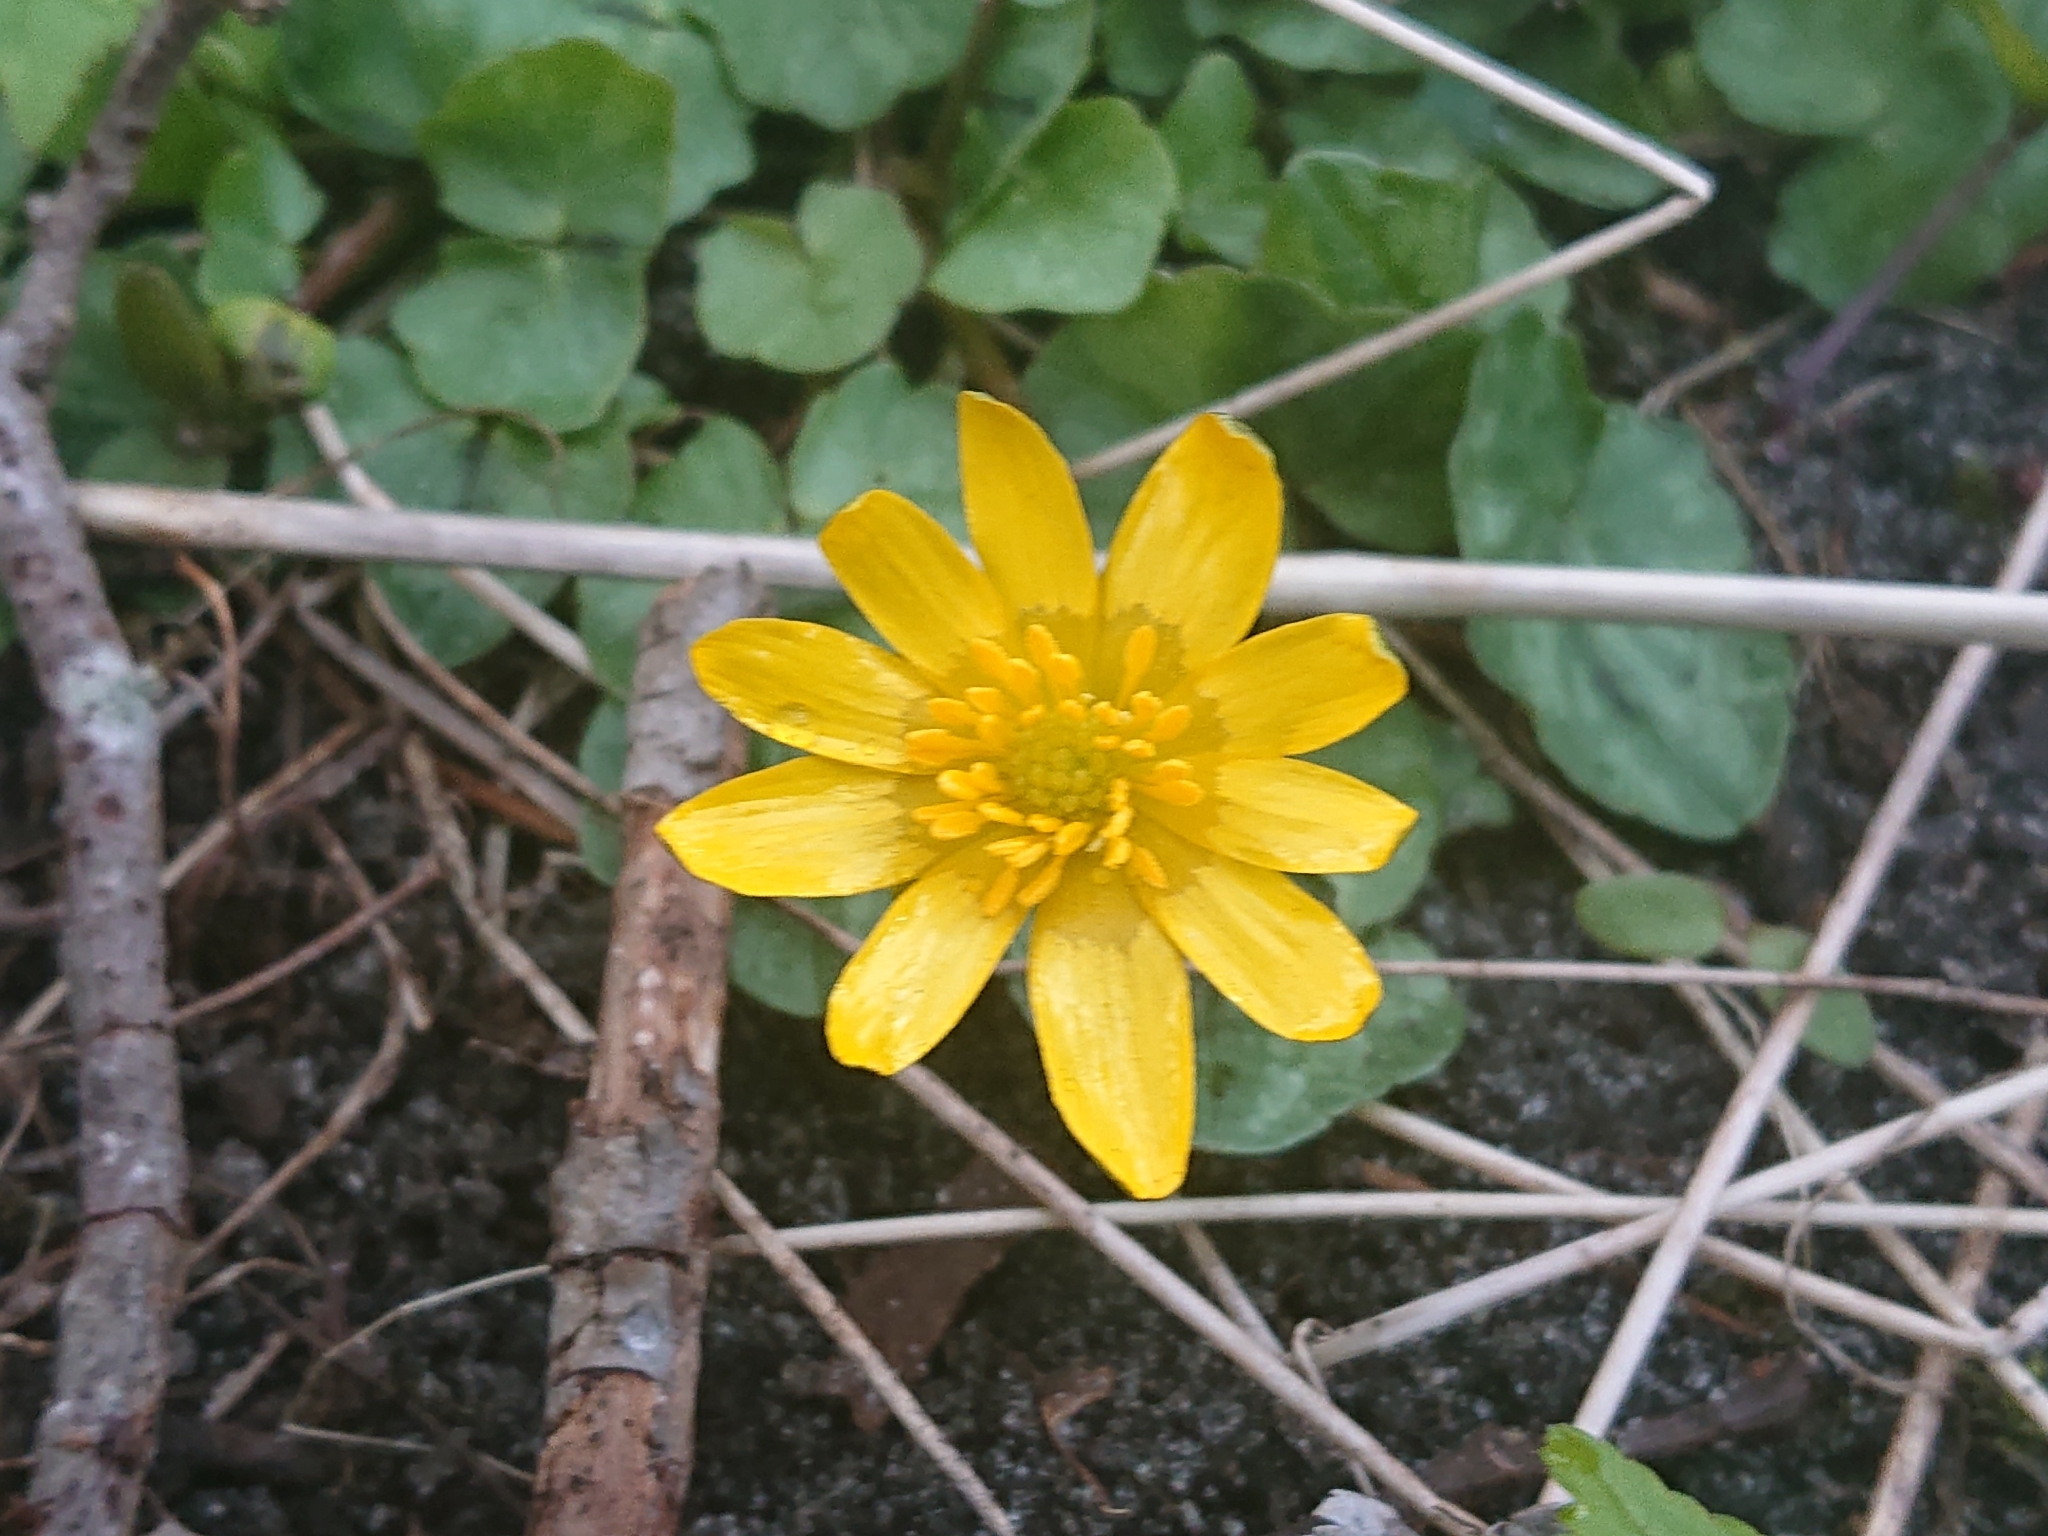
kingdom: Plantae
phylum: Tracheophyta
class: Magnoliopsida
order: Ranunculales
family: Ranunculaceae
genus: Ficaria
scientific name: Ficaria verna
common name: Lesser celandine
